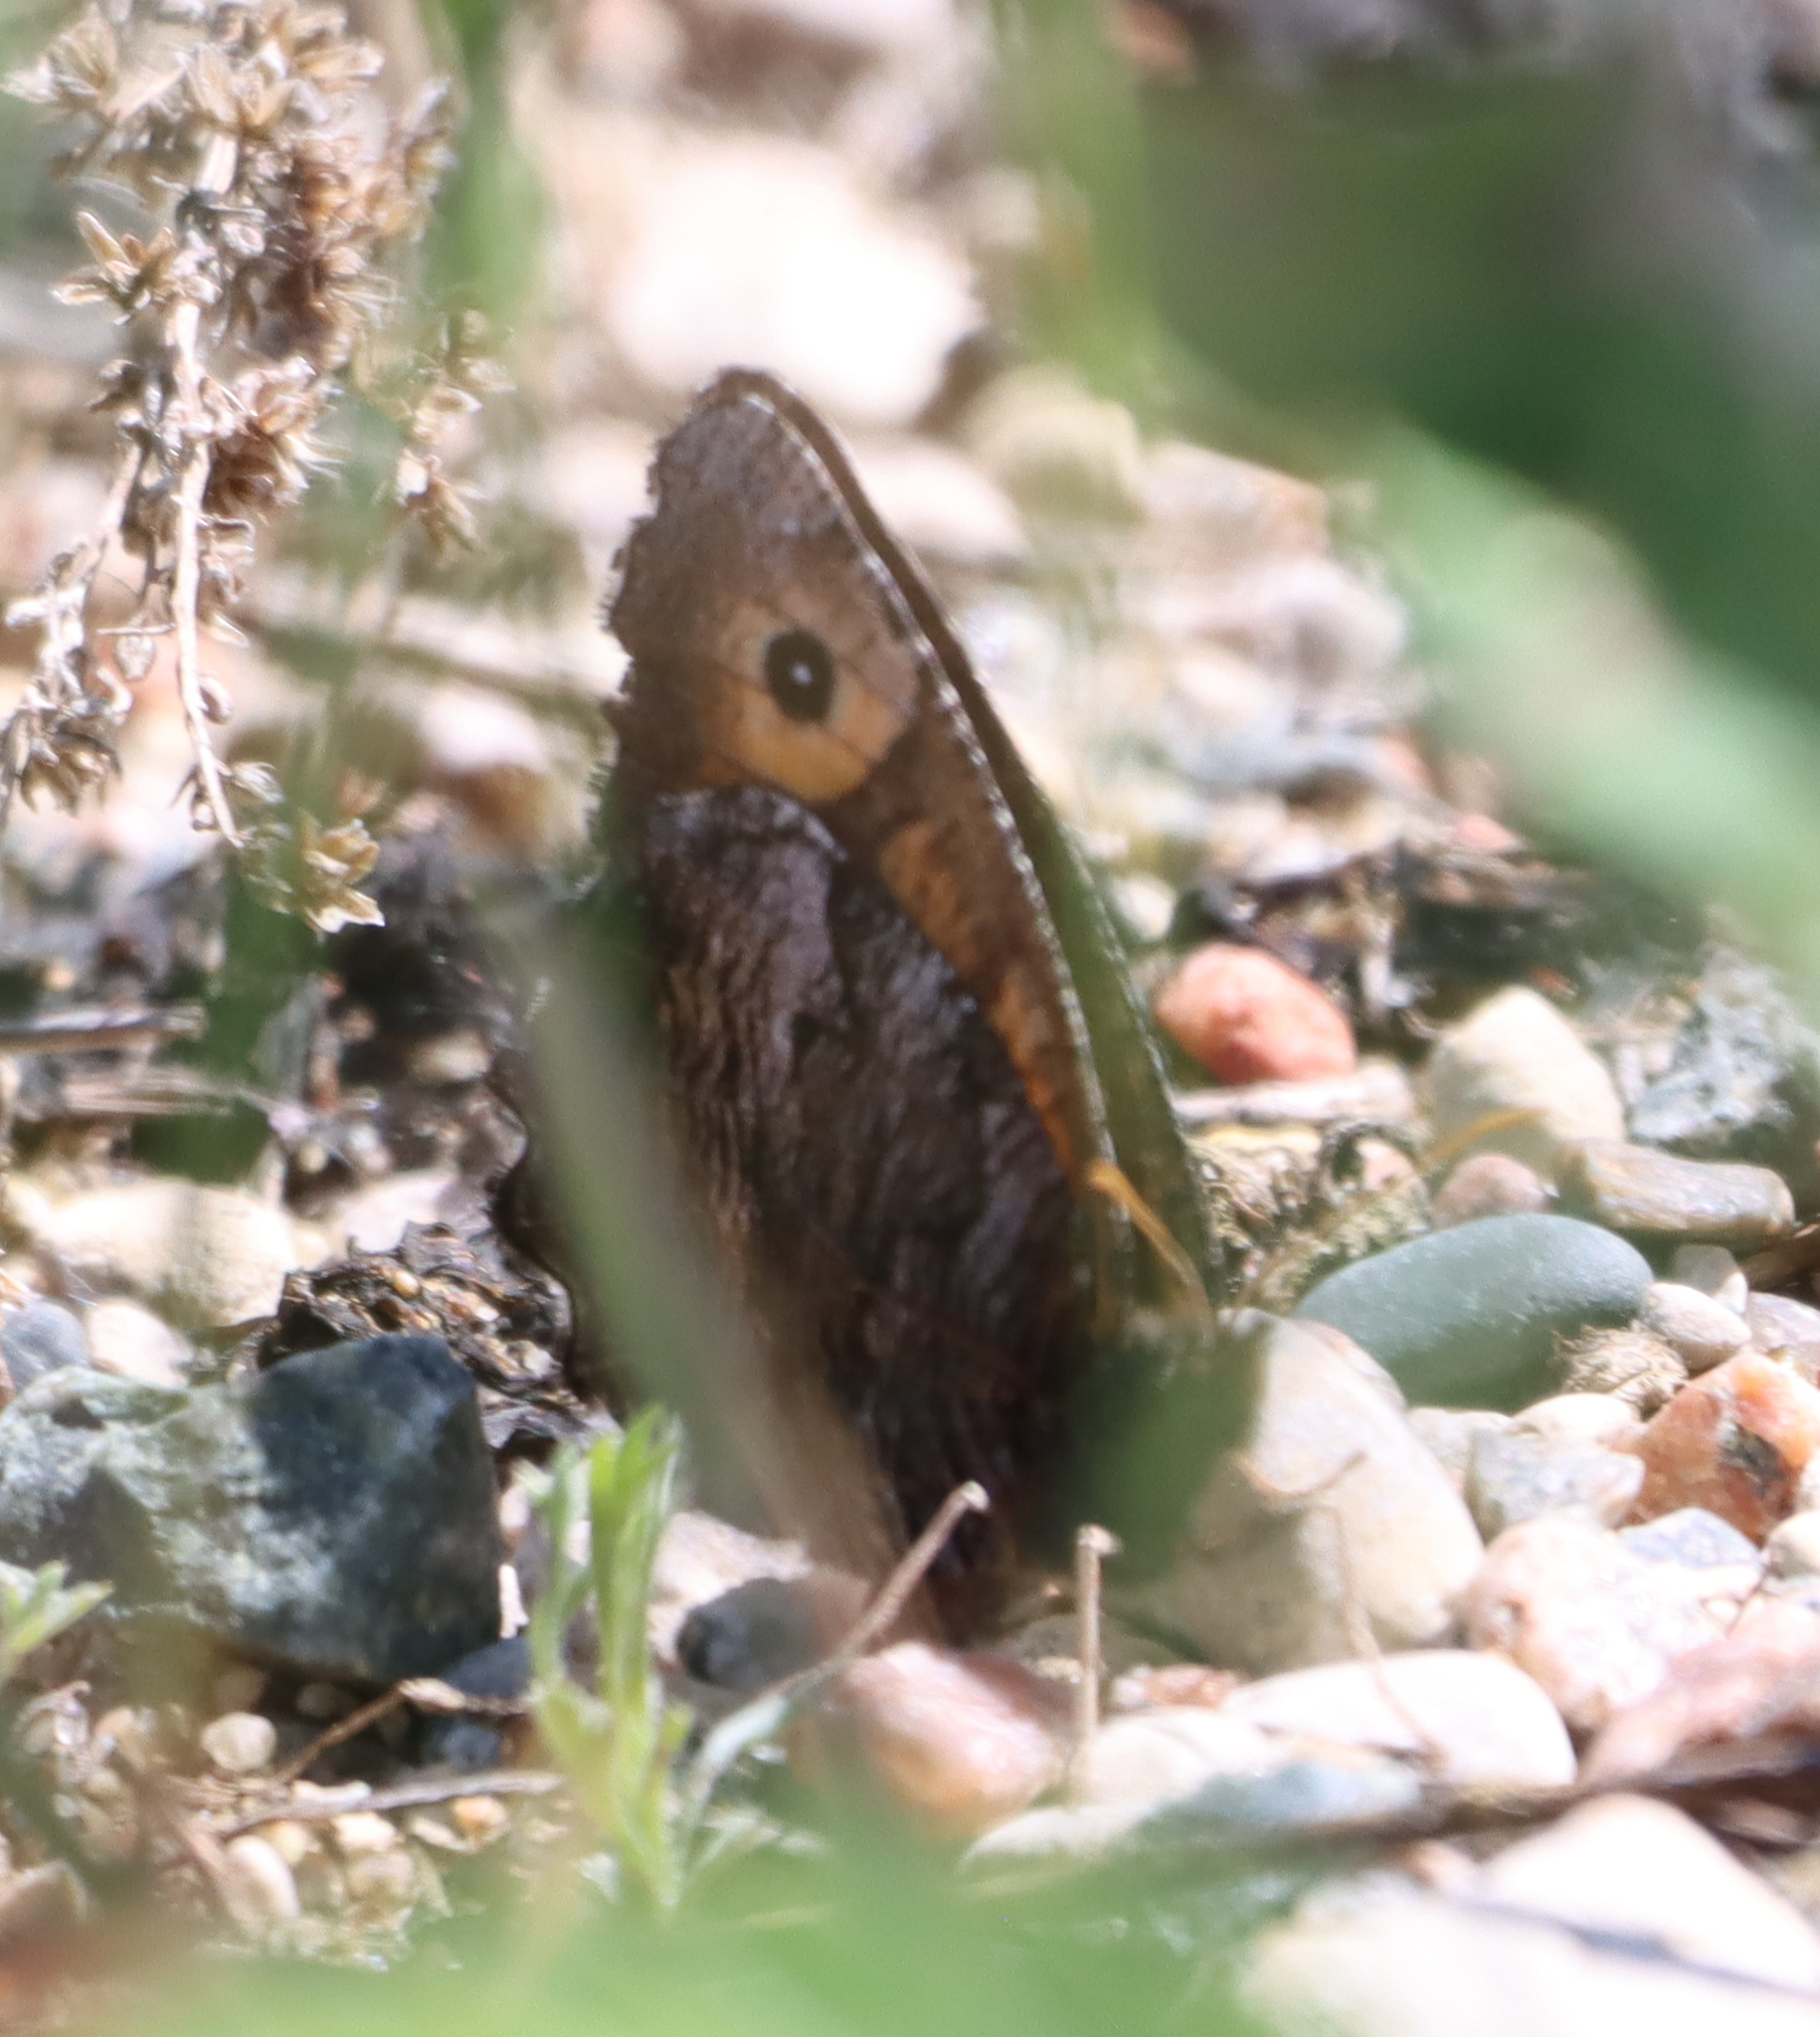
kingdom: Animalia
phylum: Arthropoda
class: Insecta
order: Lepidoptera
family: Nymphalidae
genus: Oeneis
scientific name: Oeneis macounii
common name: Macoun's arctic
